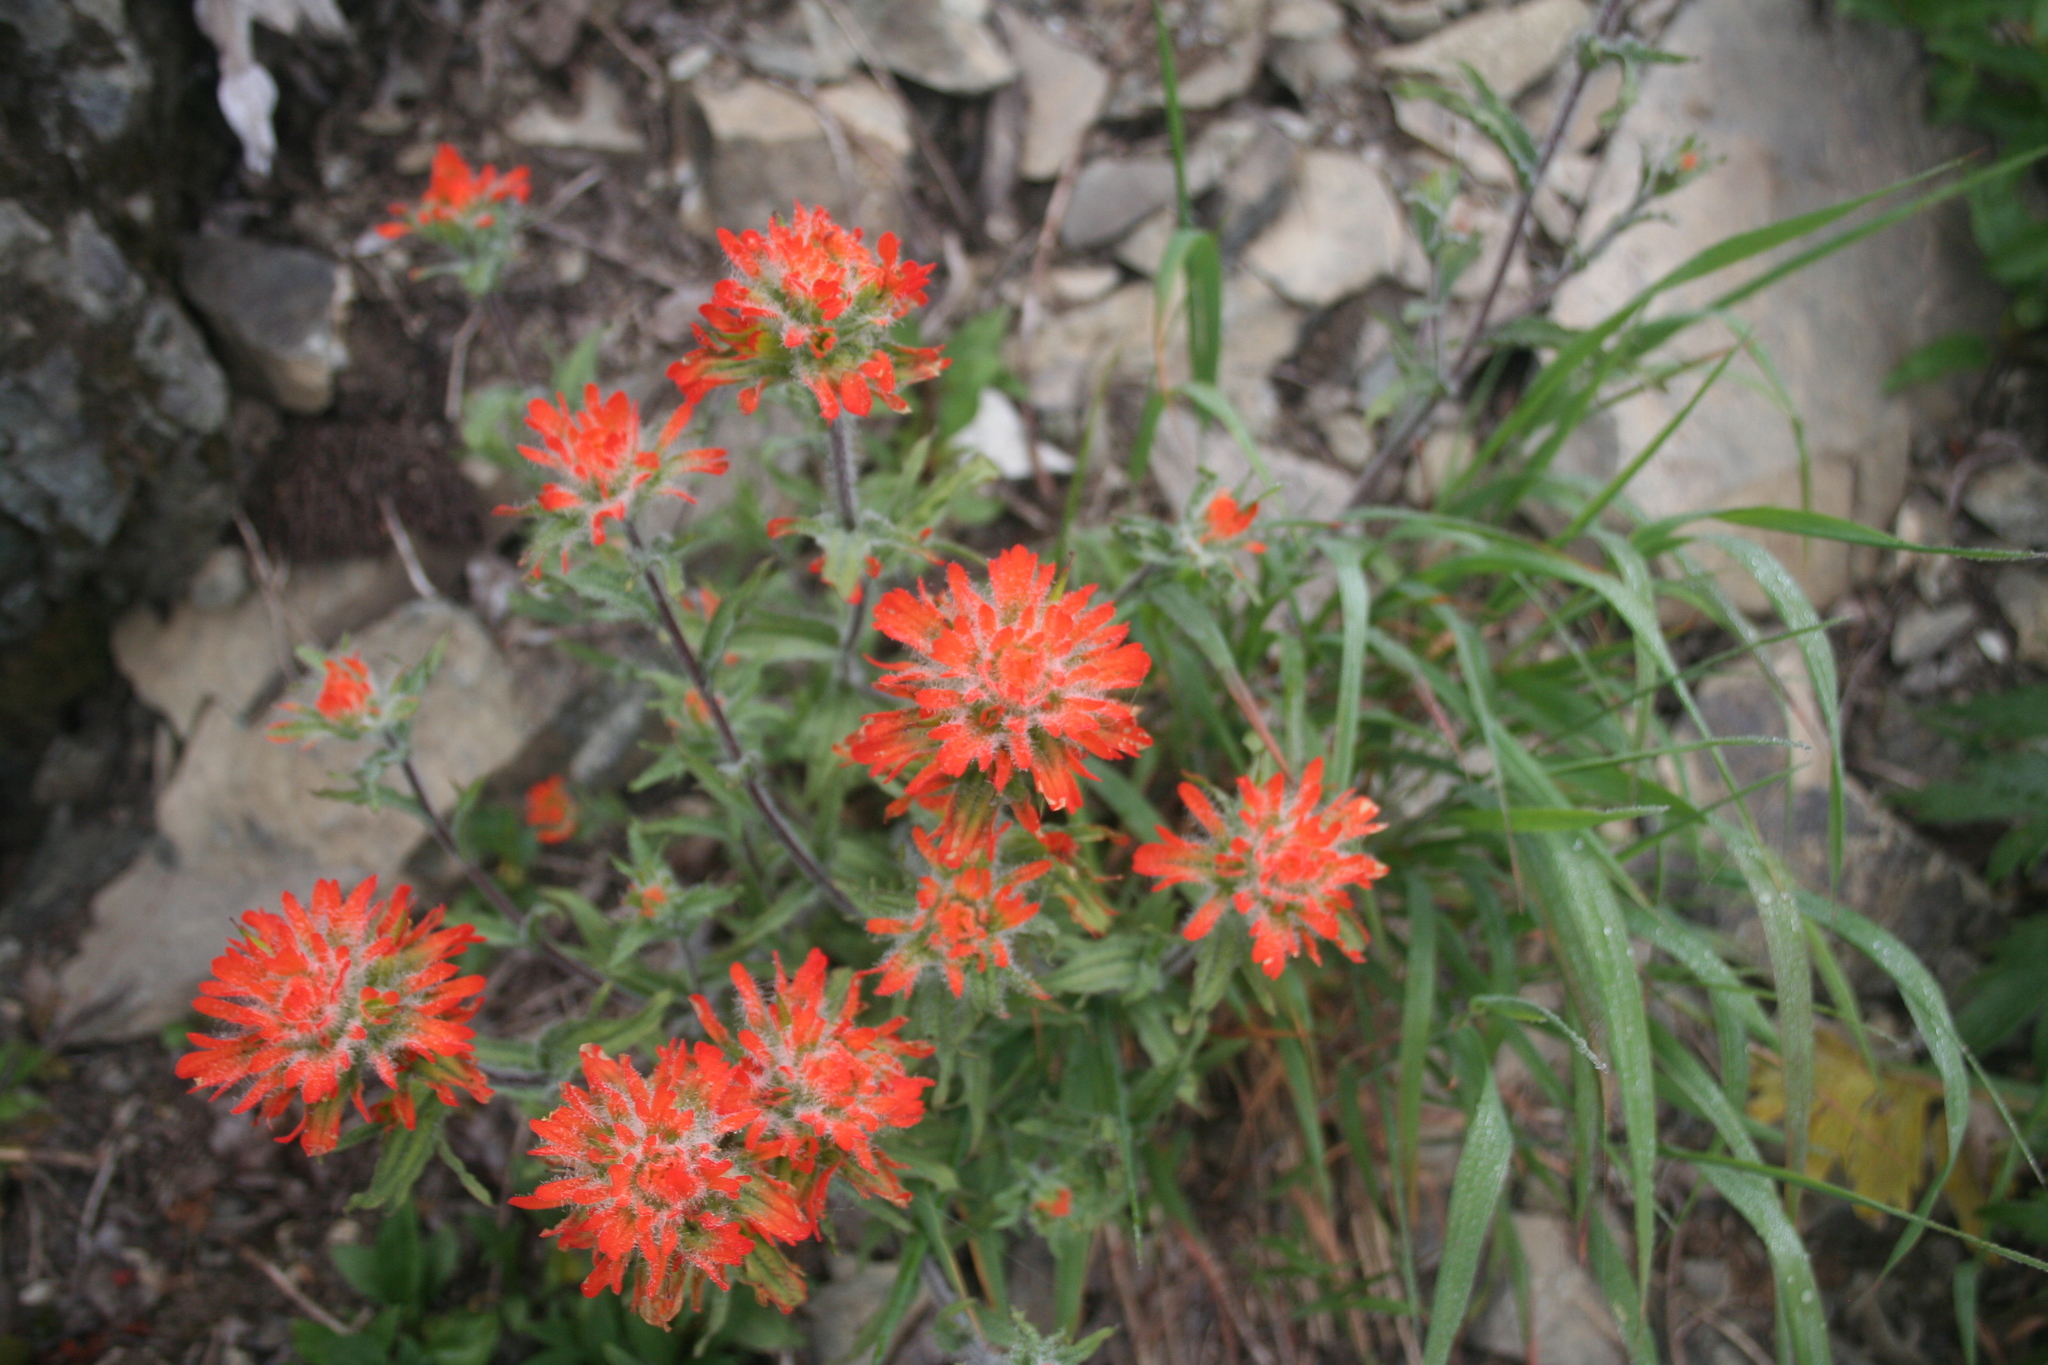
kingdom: Plantae
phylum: Tracheophyta
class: Magnoliopsida
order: Lamiales
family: Orobanchaceae
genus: Castilleja
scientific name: Castilleja hispida
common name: Bristly paintbrush
